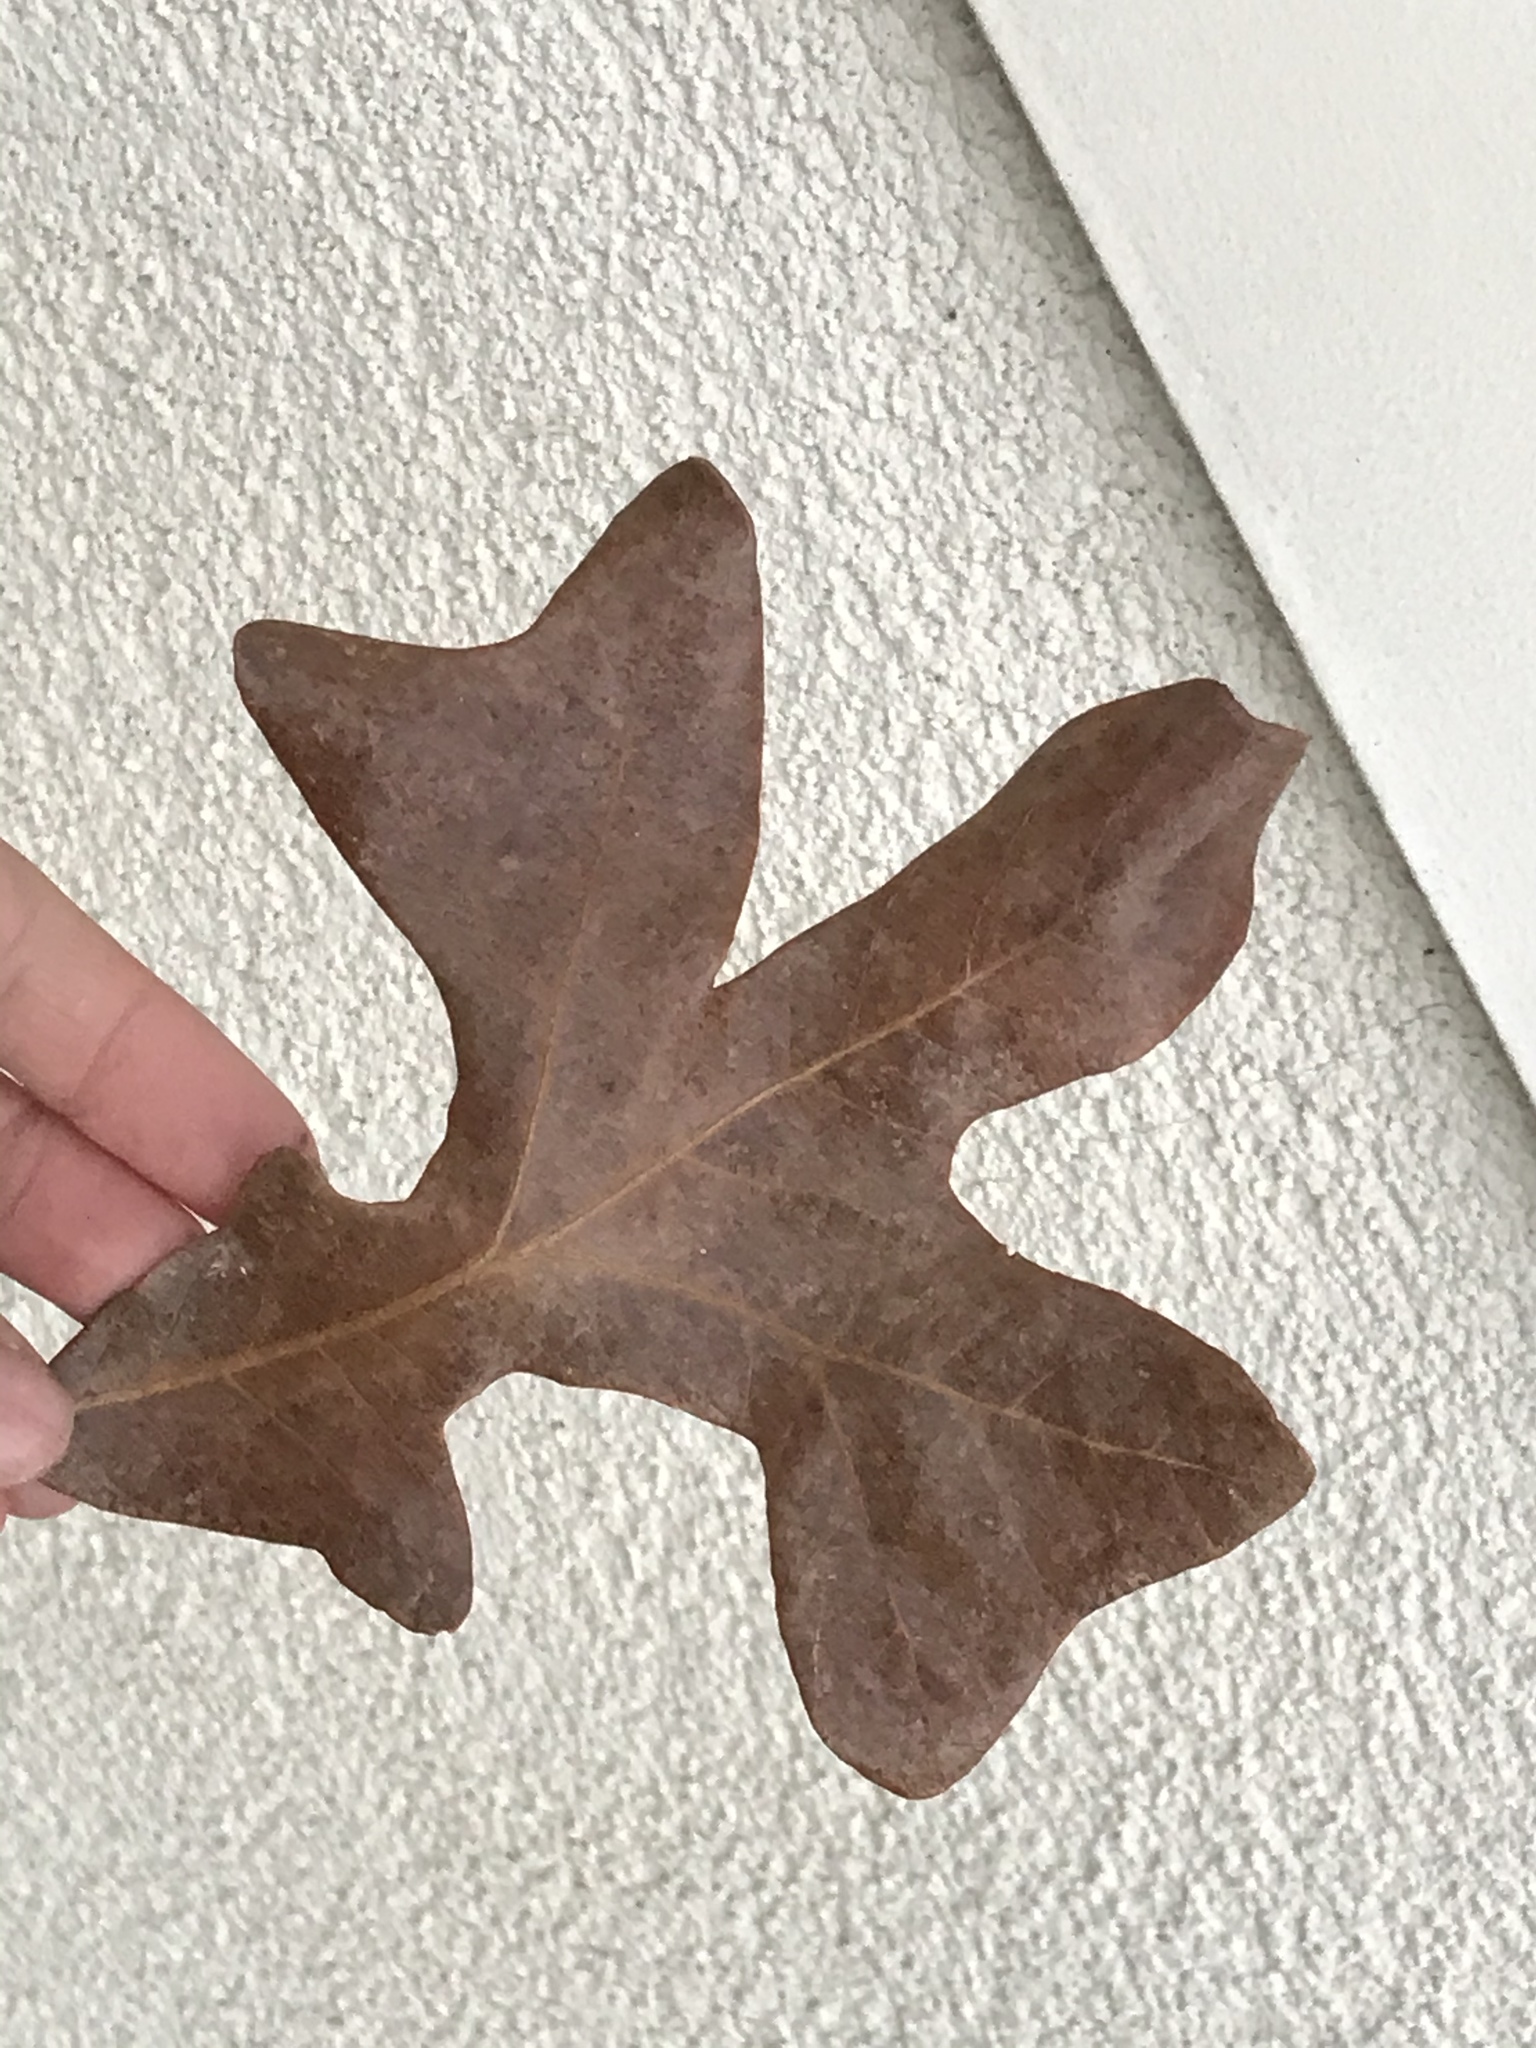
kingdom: Plantae
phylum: Tracheophyta
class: Magnoliopsida
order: Fagales
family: Fagaceae
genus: Quercus
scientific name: Quercus stellata
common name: Post oak
